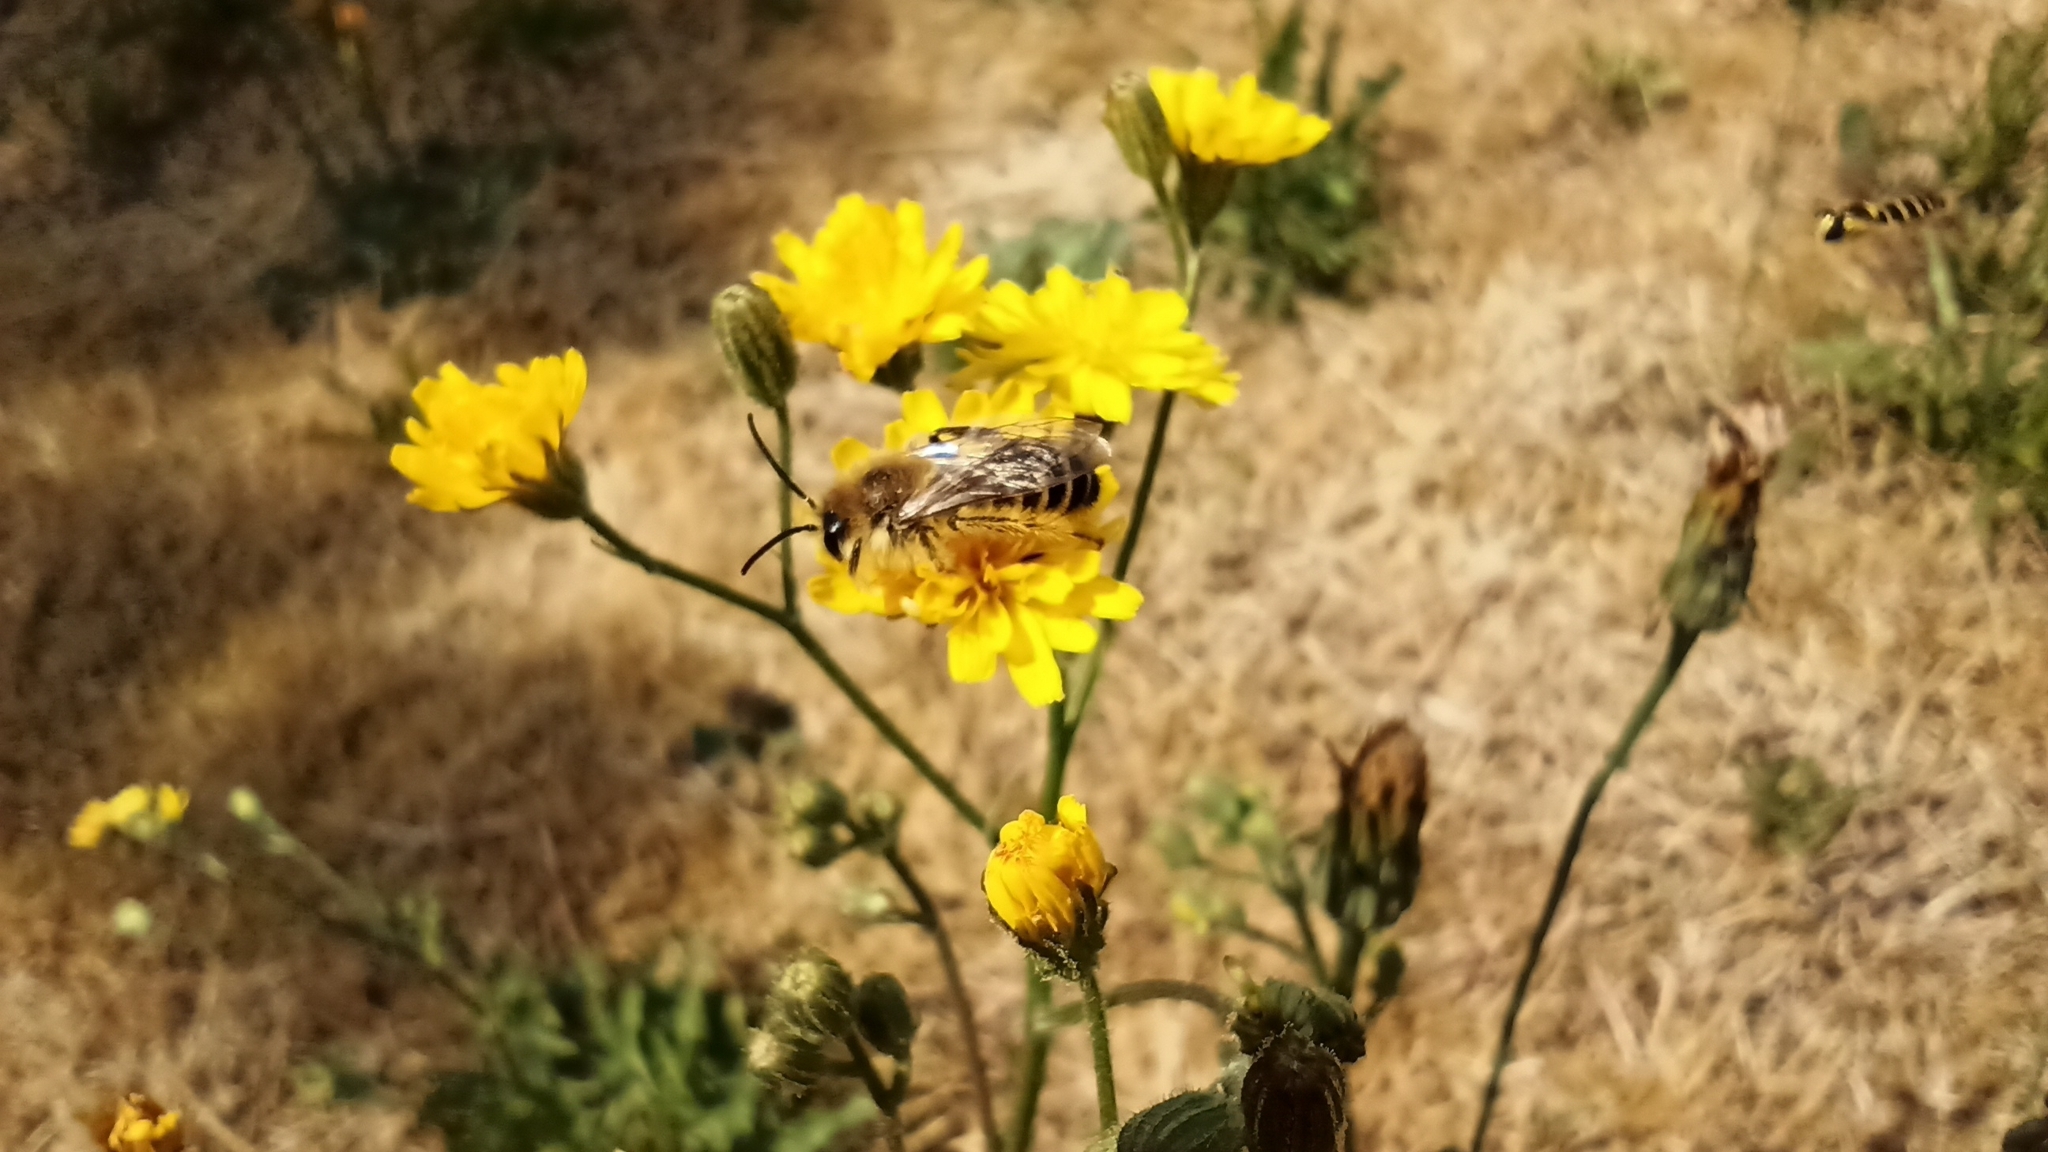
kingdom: Animalia
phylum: Arthropoda
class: Insecta
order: Hymenoptera
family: Melittidae
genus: Dasypoda
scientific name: Dasypoda hirtipes
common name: Pantaloon bee
